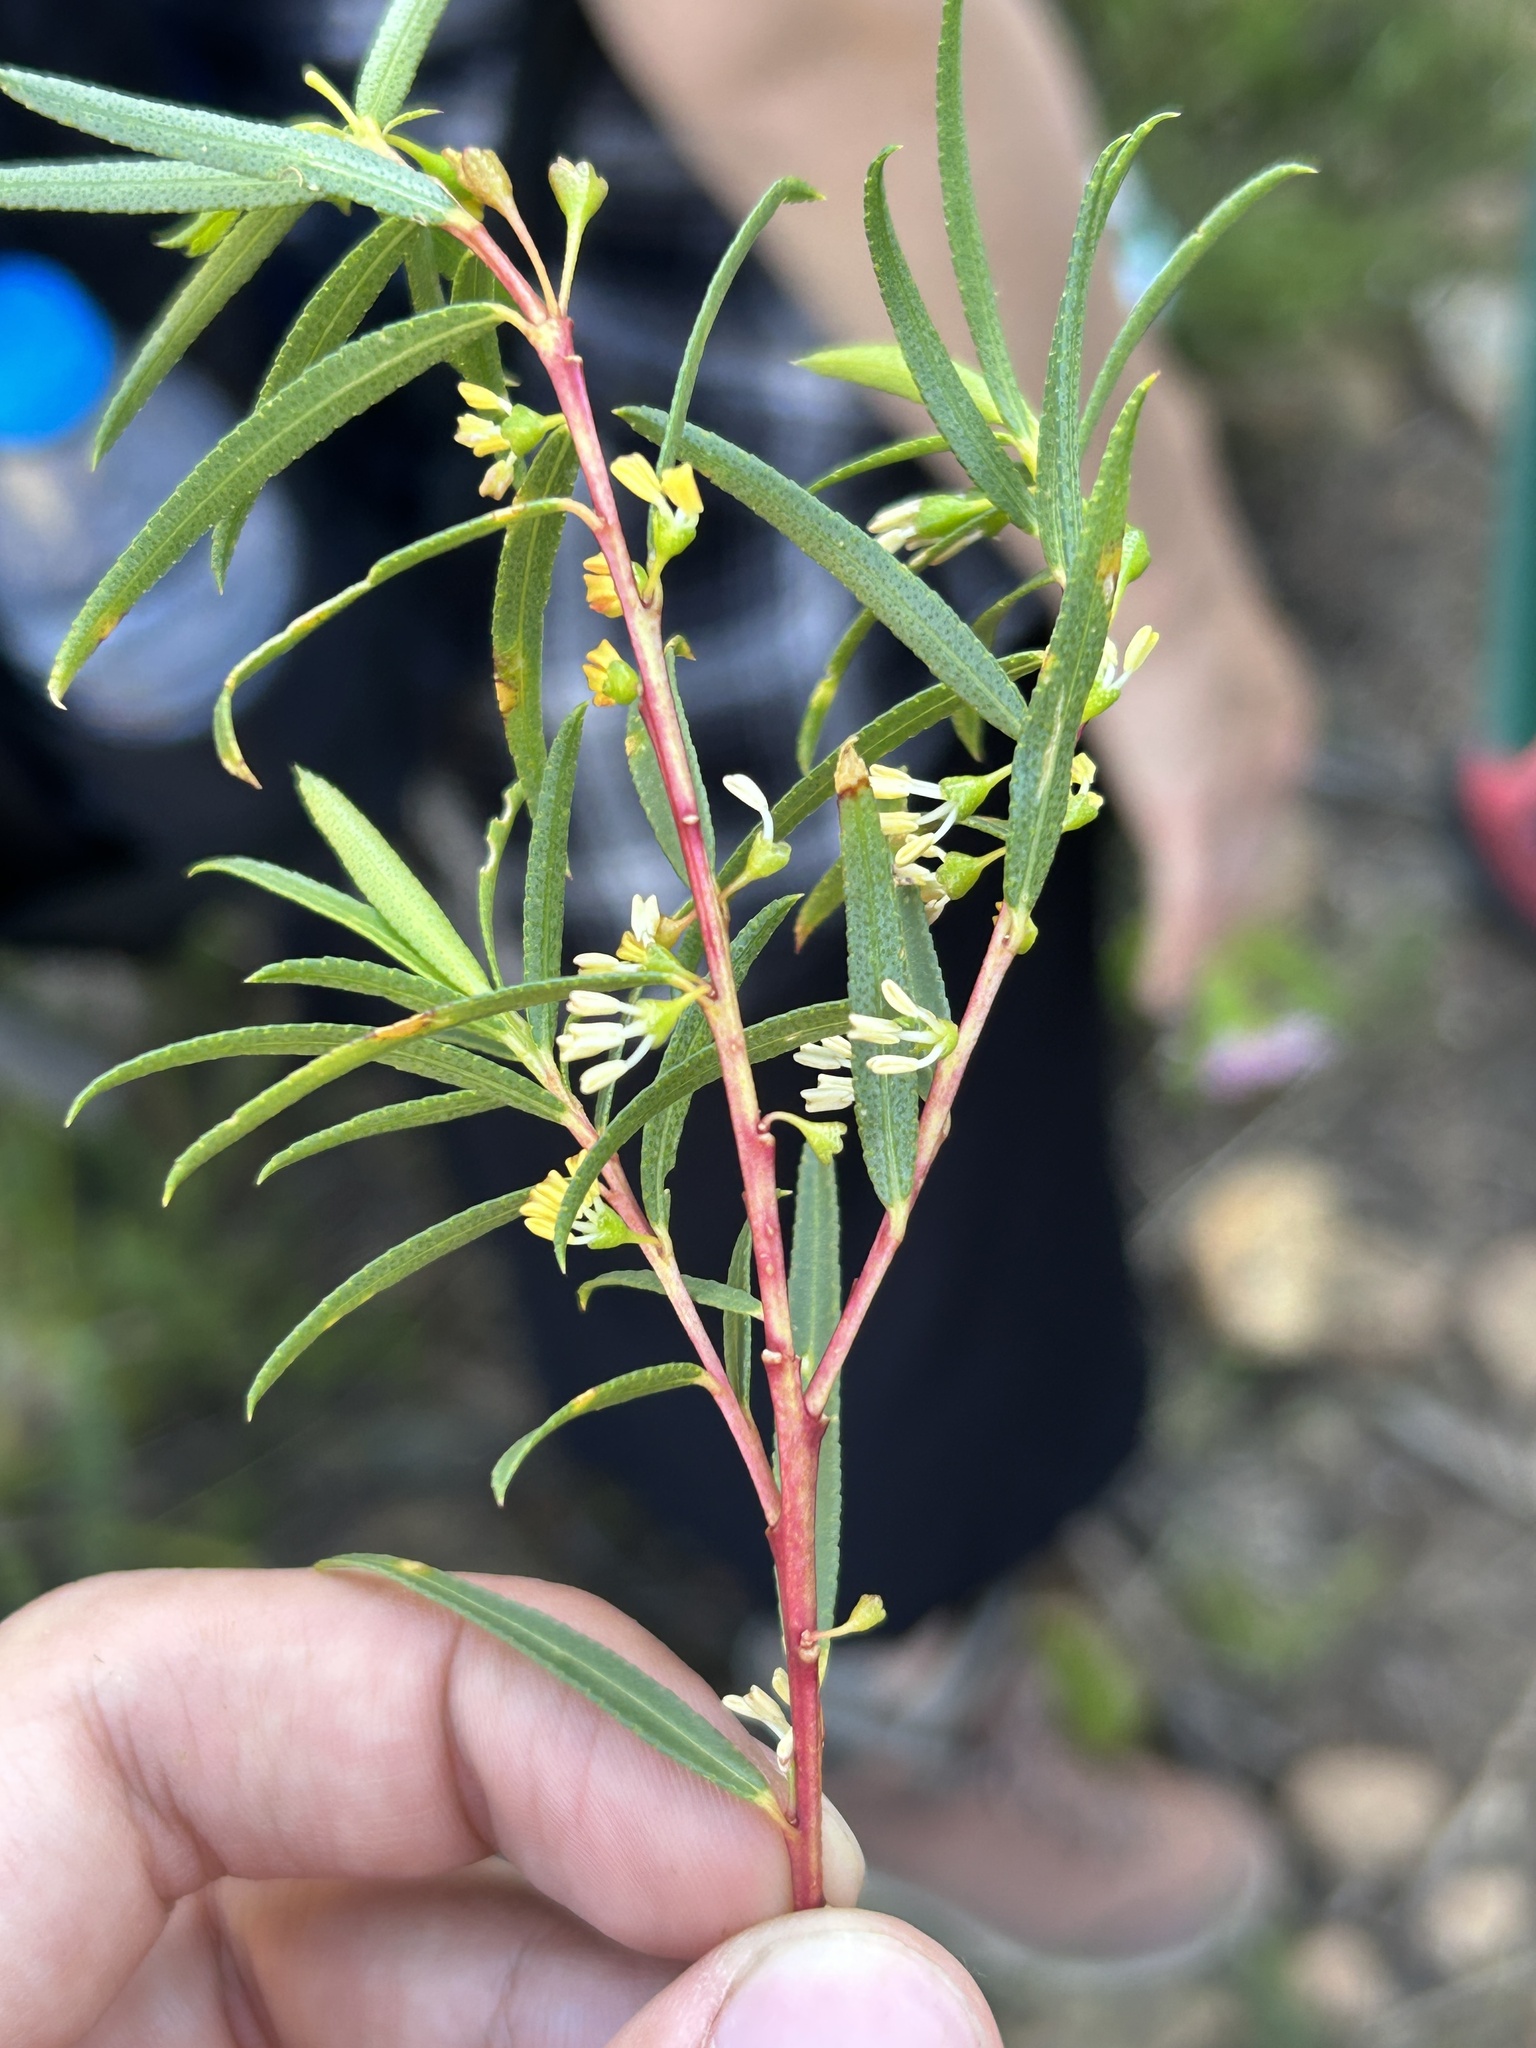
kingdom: Plantae
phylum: Tracheophyta
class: Magnoliopsida
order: Sapindales
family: Rutaceae
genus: Empleurum
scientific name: Empleurum unicapsulare
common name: False buchu
